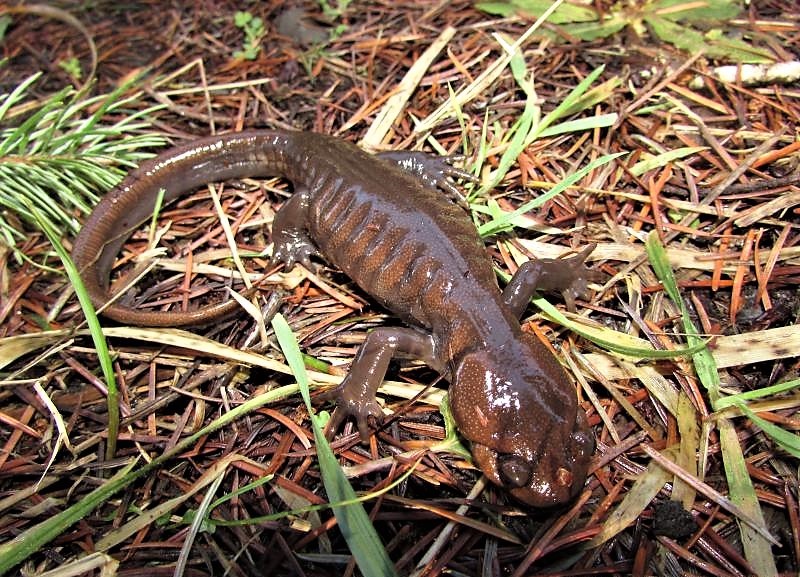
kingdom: Animalia
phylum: Chordata
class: Amphibia
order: Caudata
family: Ambystomatidae
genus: Ambystoma
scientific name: Ambystoma gracile
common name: Northwestern salamander
